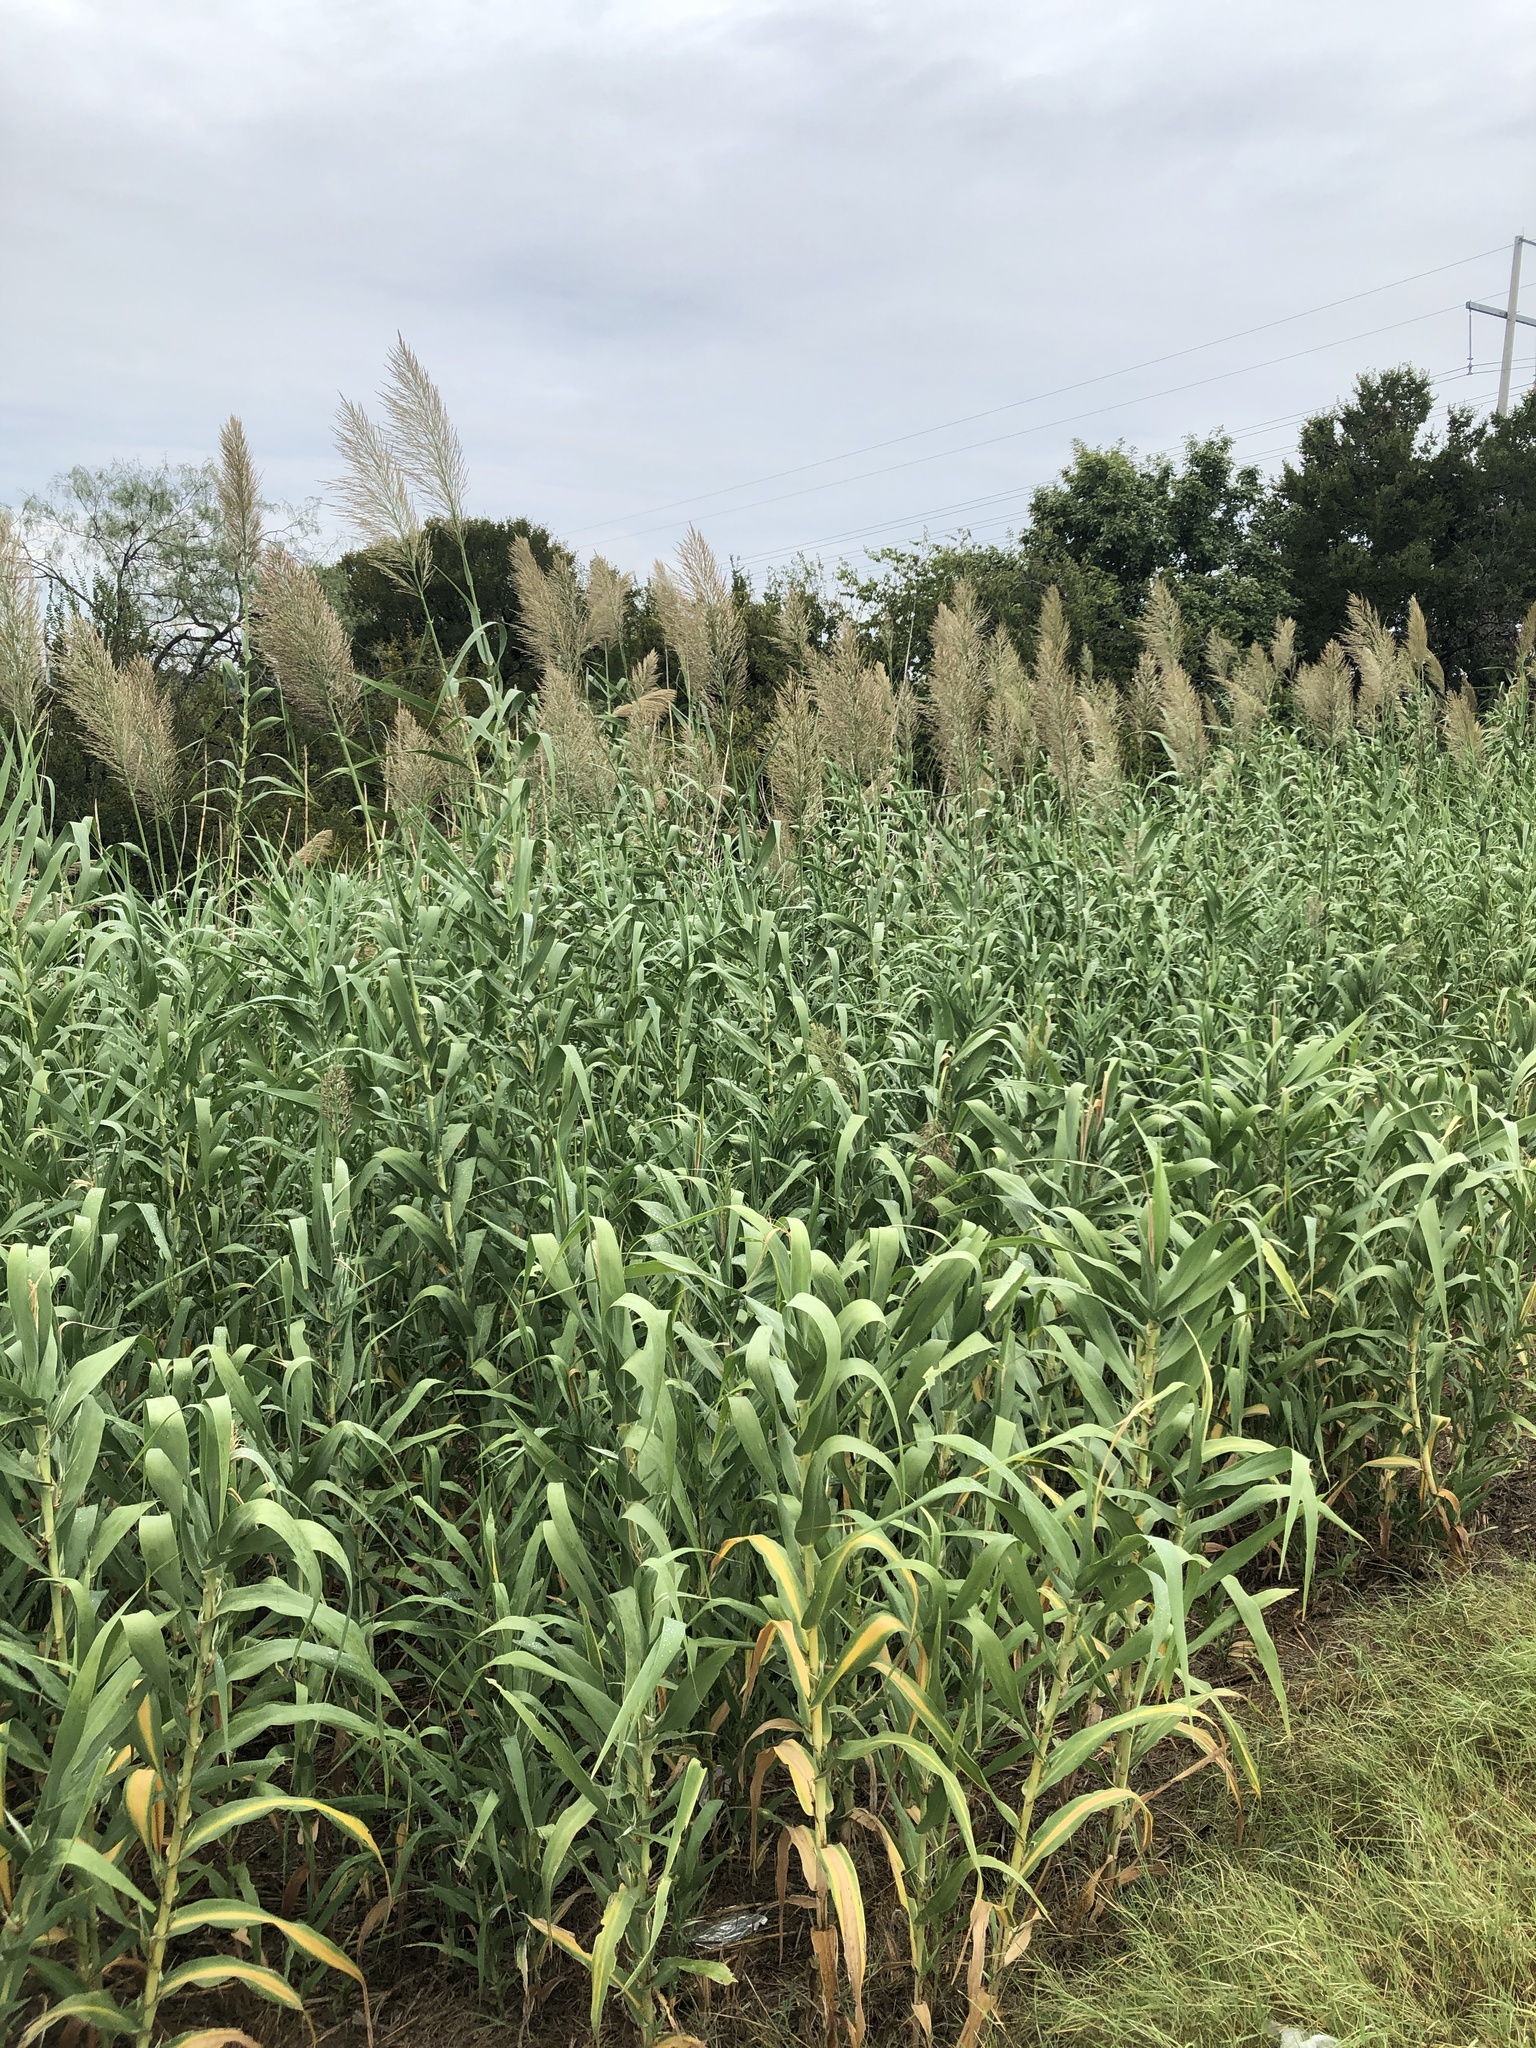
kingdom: Plantae
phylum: Tracheophyta
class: Liliopsida
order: Poales
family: Poaceae
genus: Arundo
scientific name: Arundo donax
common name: Giant reed
